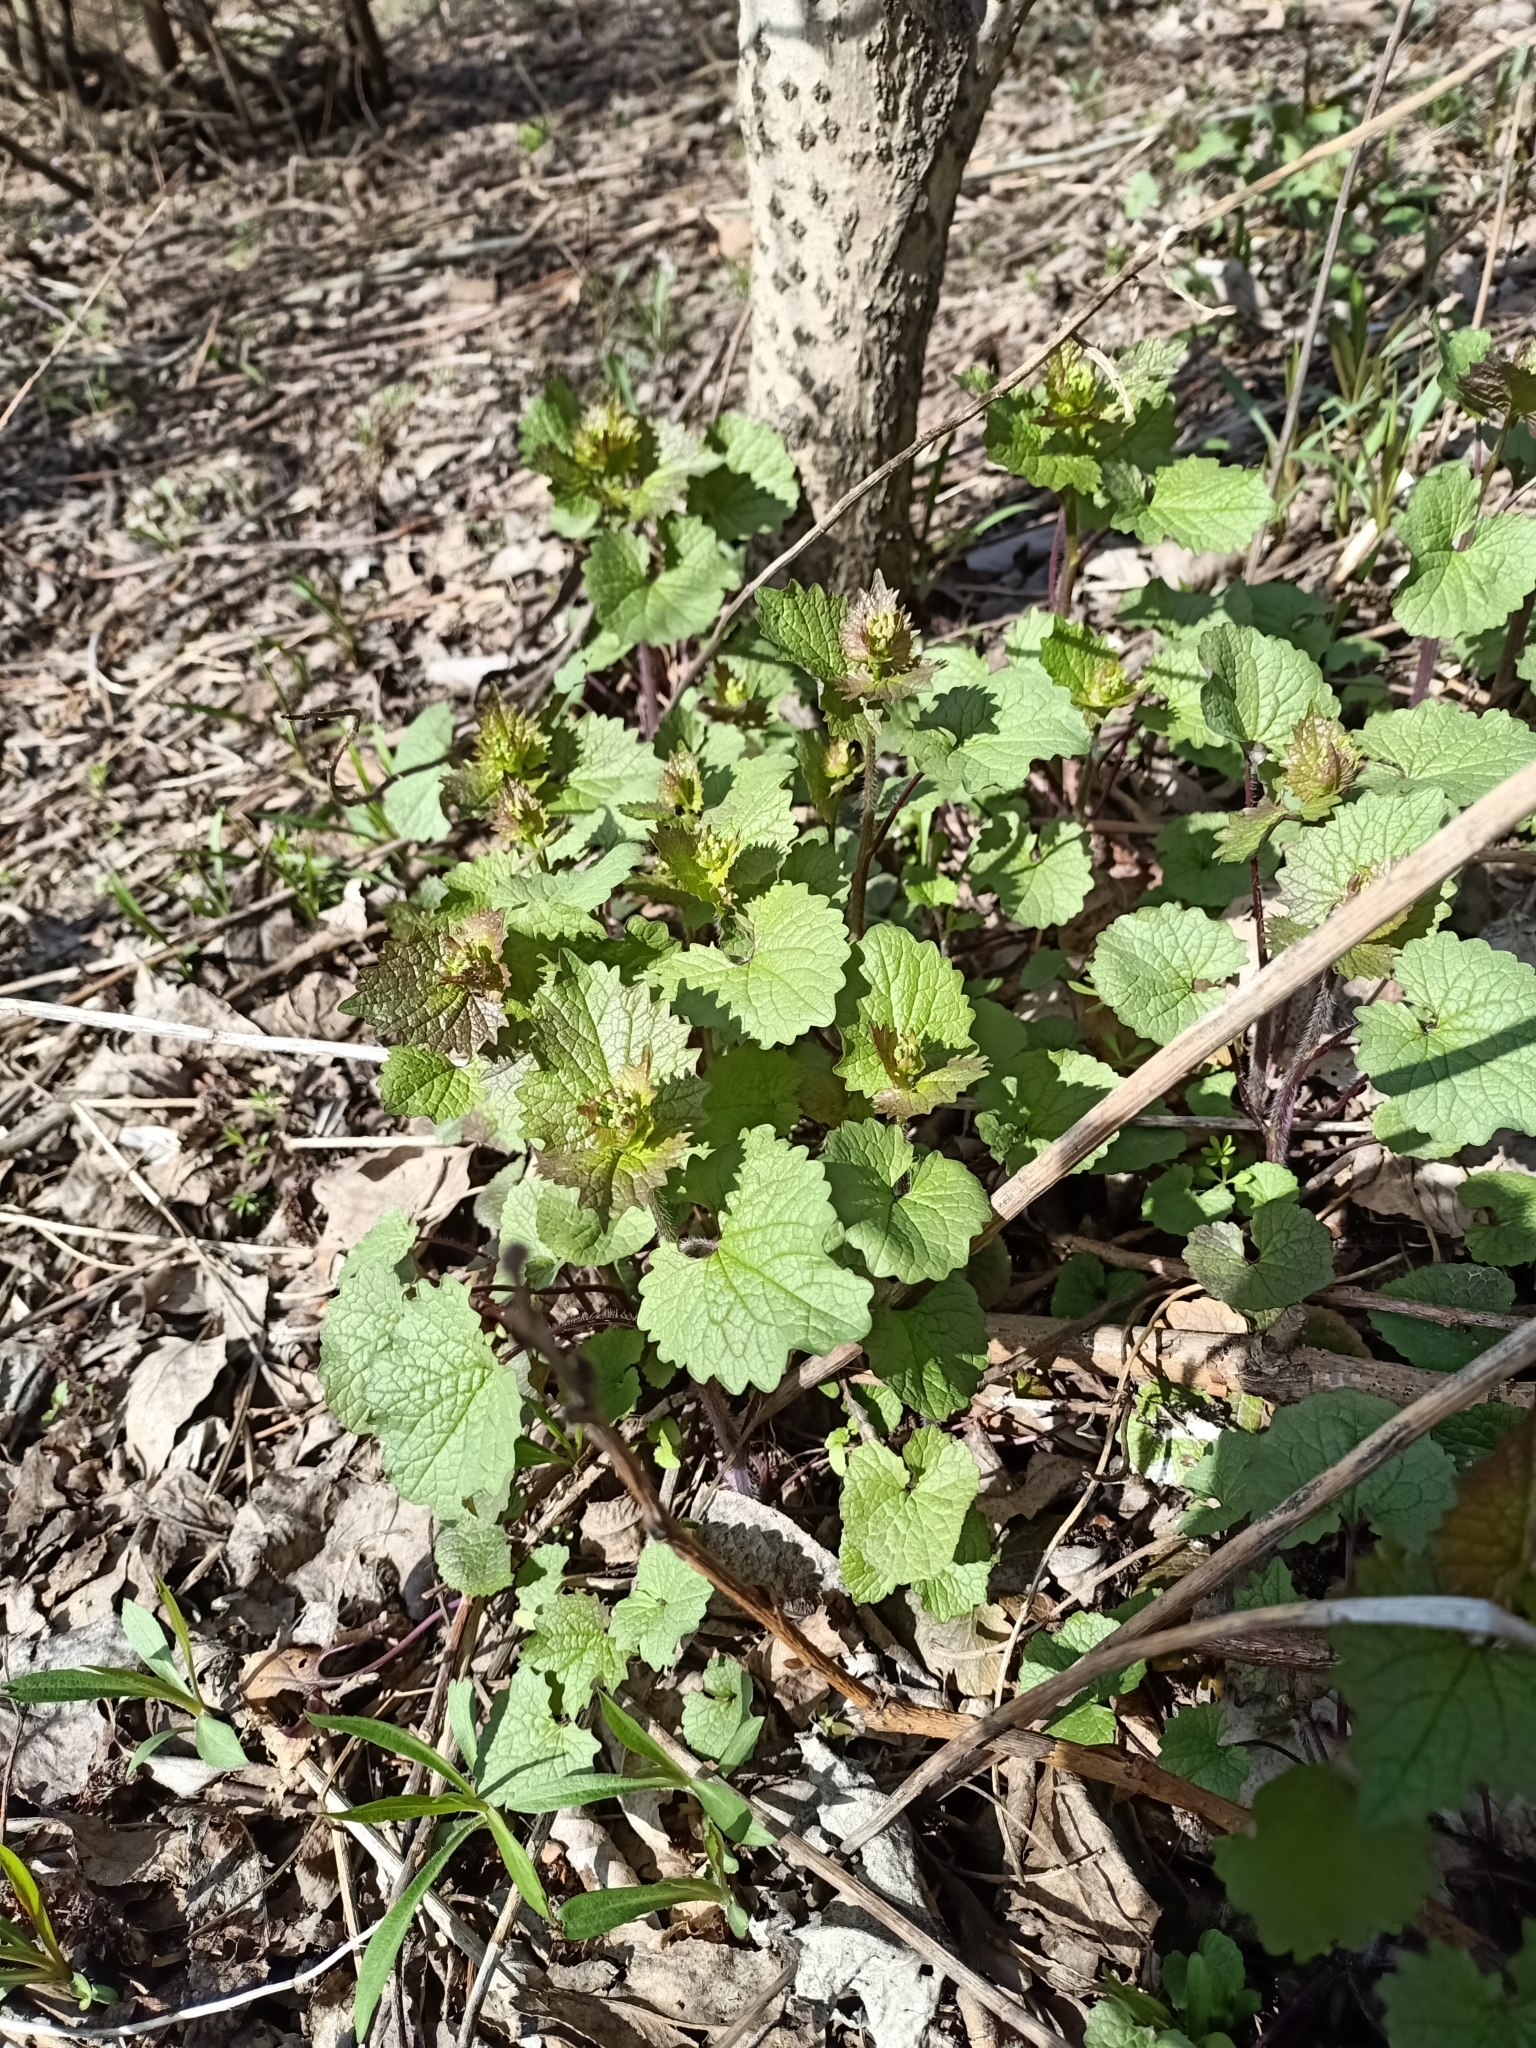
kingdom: Plantae
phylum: Tracheophyta
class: Magnoliopsida
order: Brassicales
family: Brassicaceae
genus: Alliaria
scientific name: Alliaria petiolata
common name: Garlic mustard
